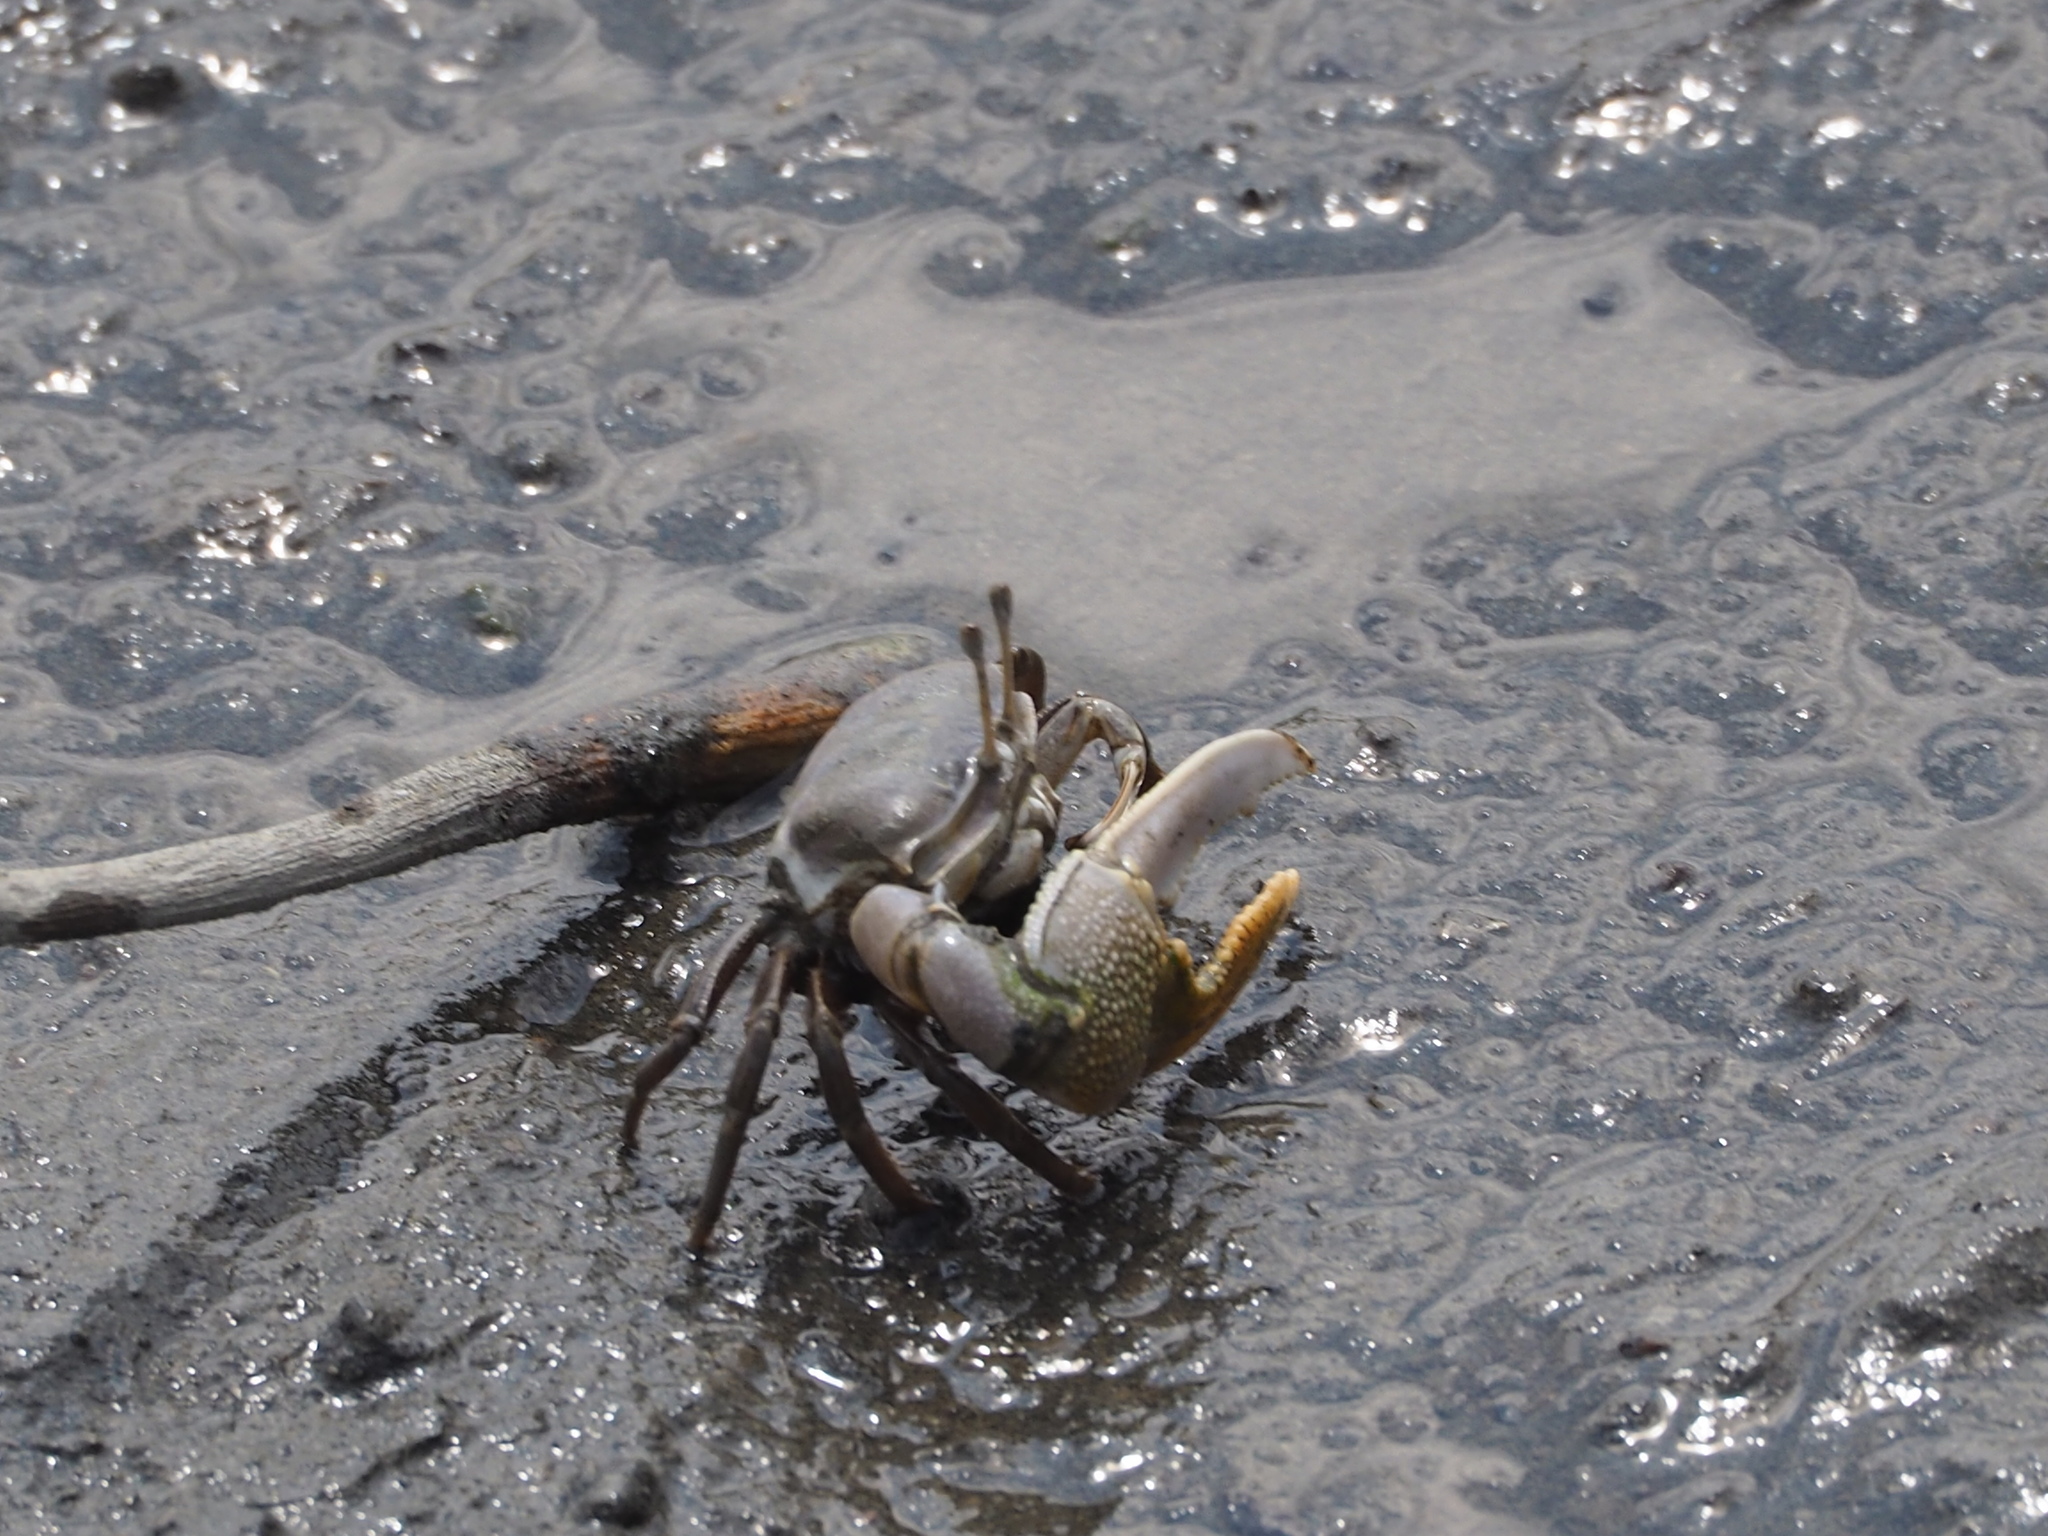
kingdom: Animalia
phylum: Arthropoda
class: Malacostraca
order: Decapoda
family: Ocypodidae
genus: Gelasimus
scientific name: Gelasimus borealis
